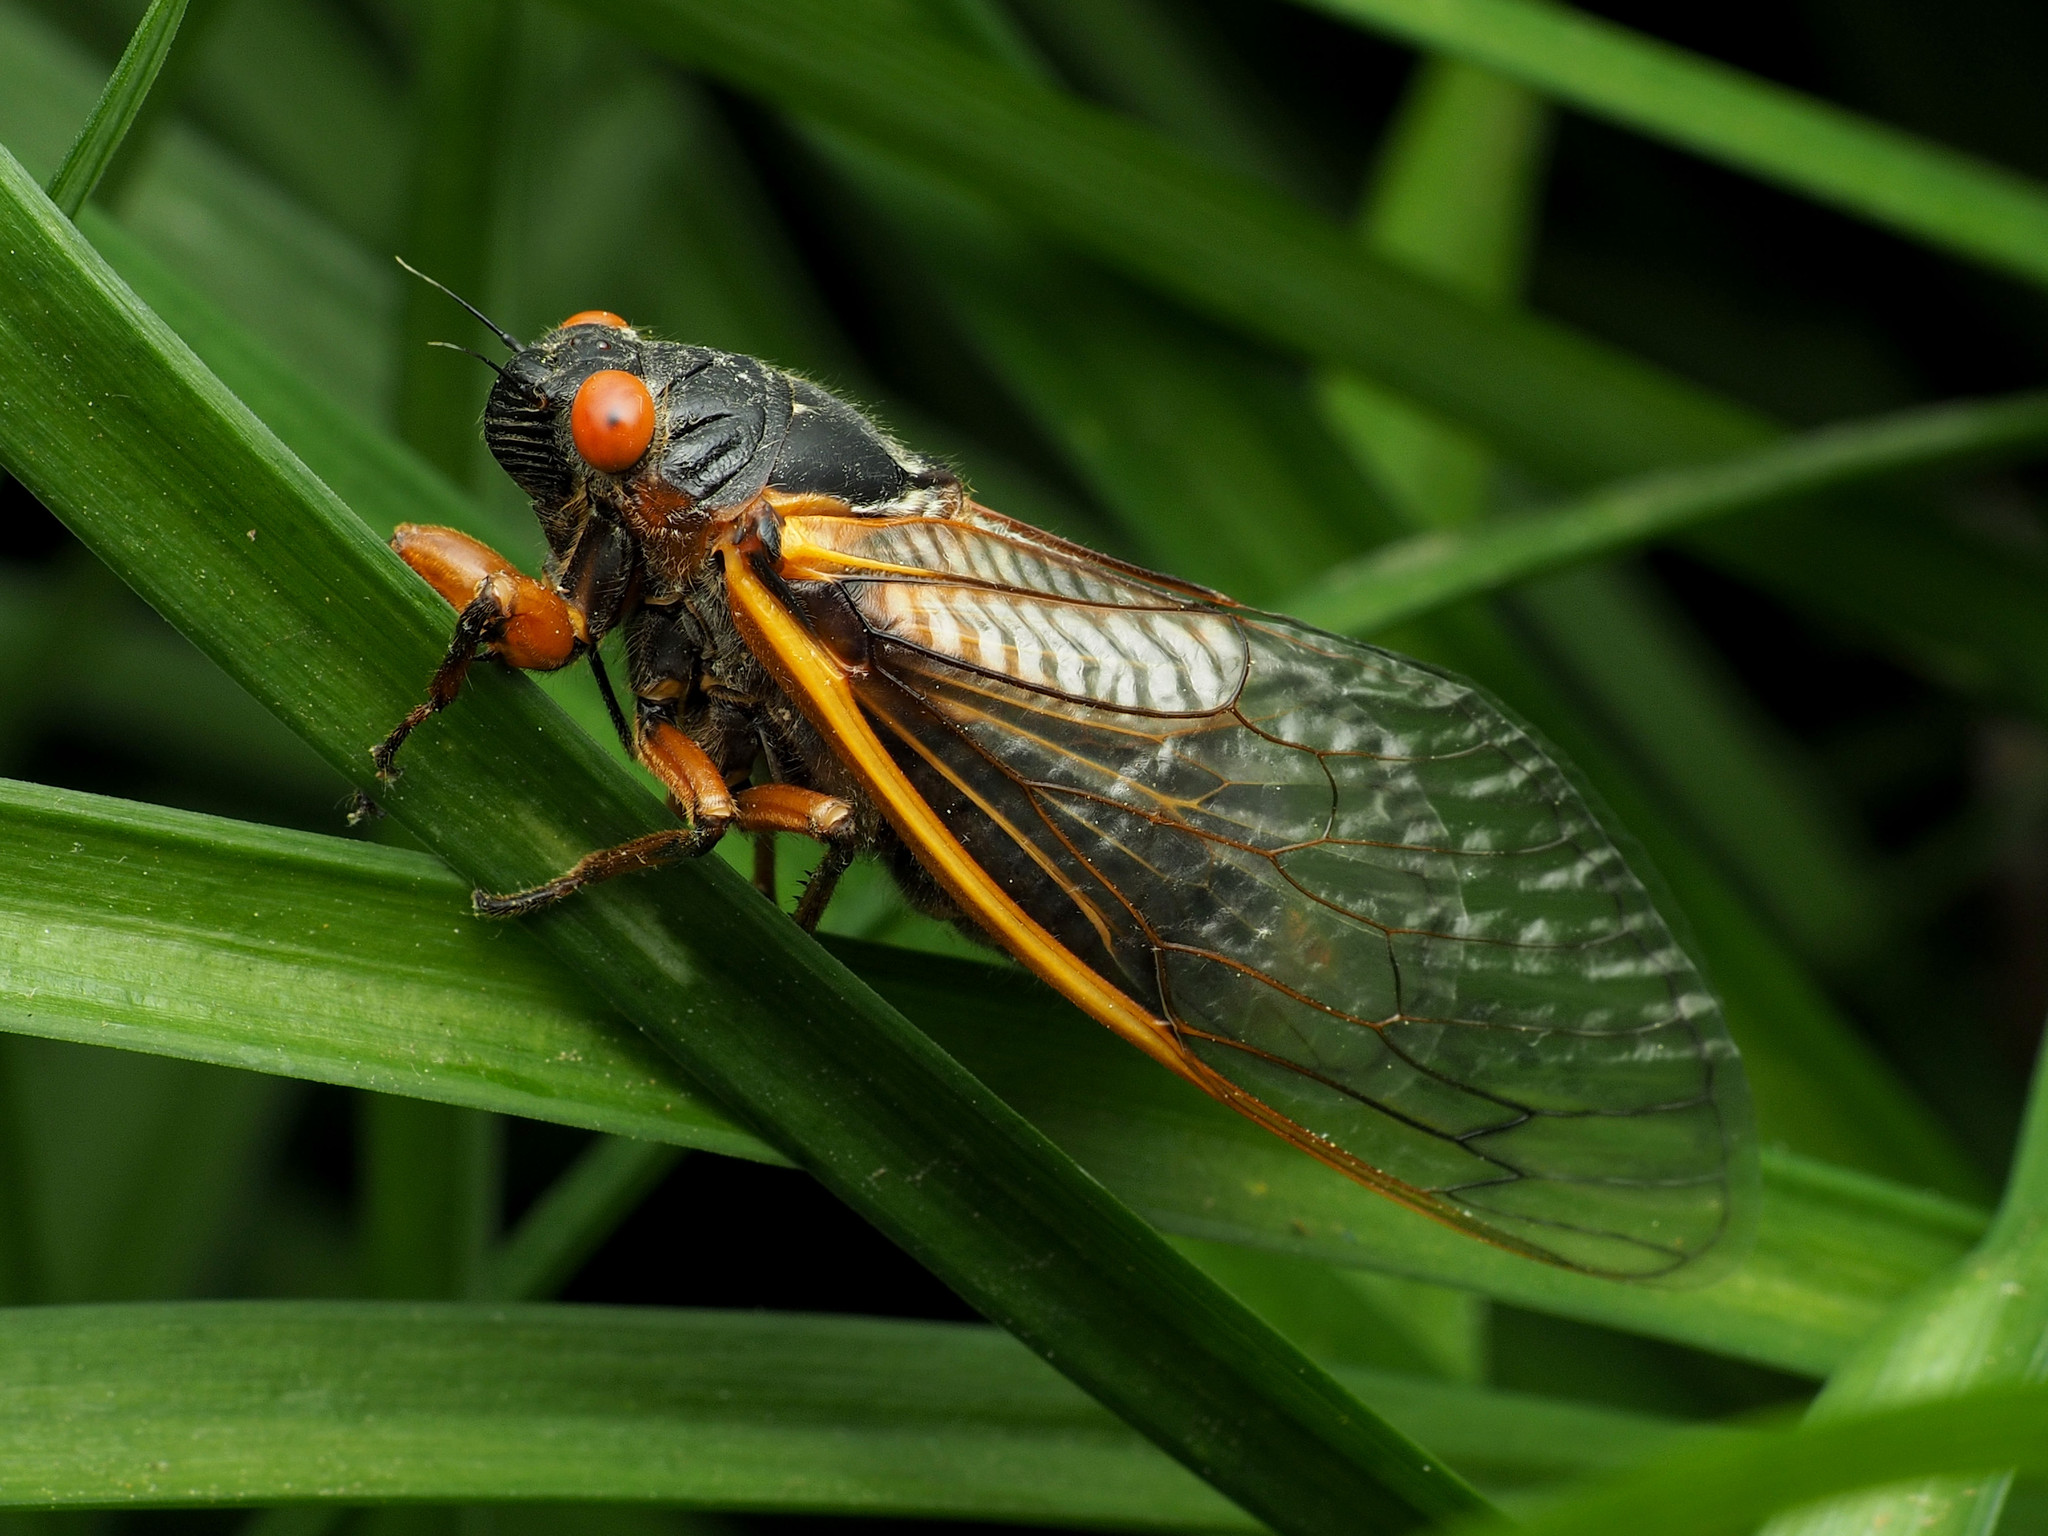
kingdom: Animalia
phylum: Arthropoda
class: Insecta
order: Hemiptera
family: Cicadidae
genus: Magicicada
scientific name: Magicicada septendecim
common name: Periodical cicada
